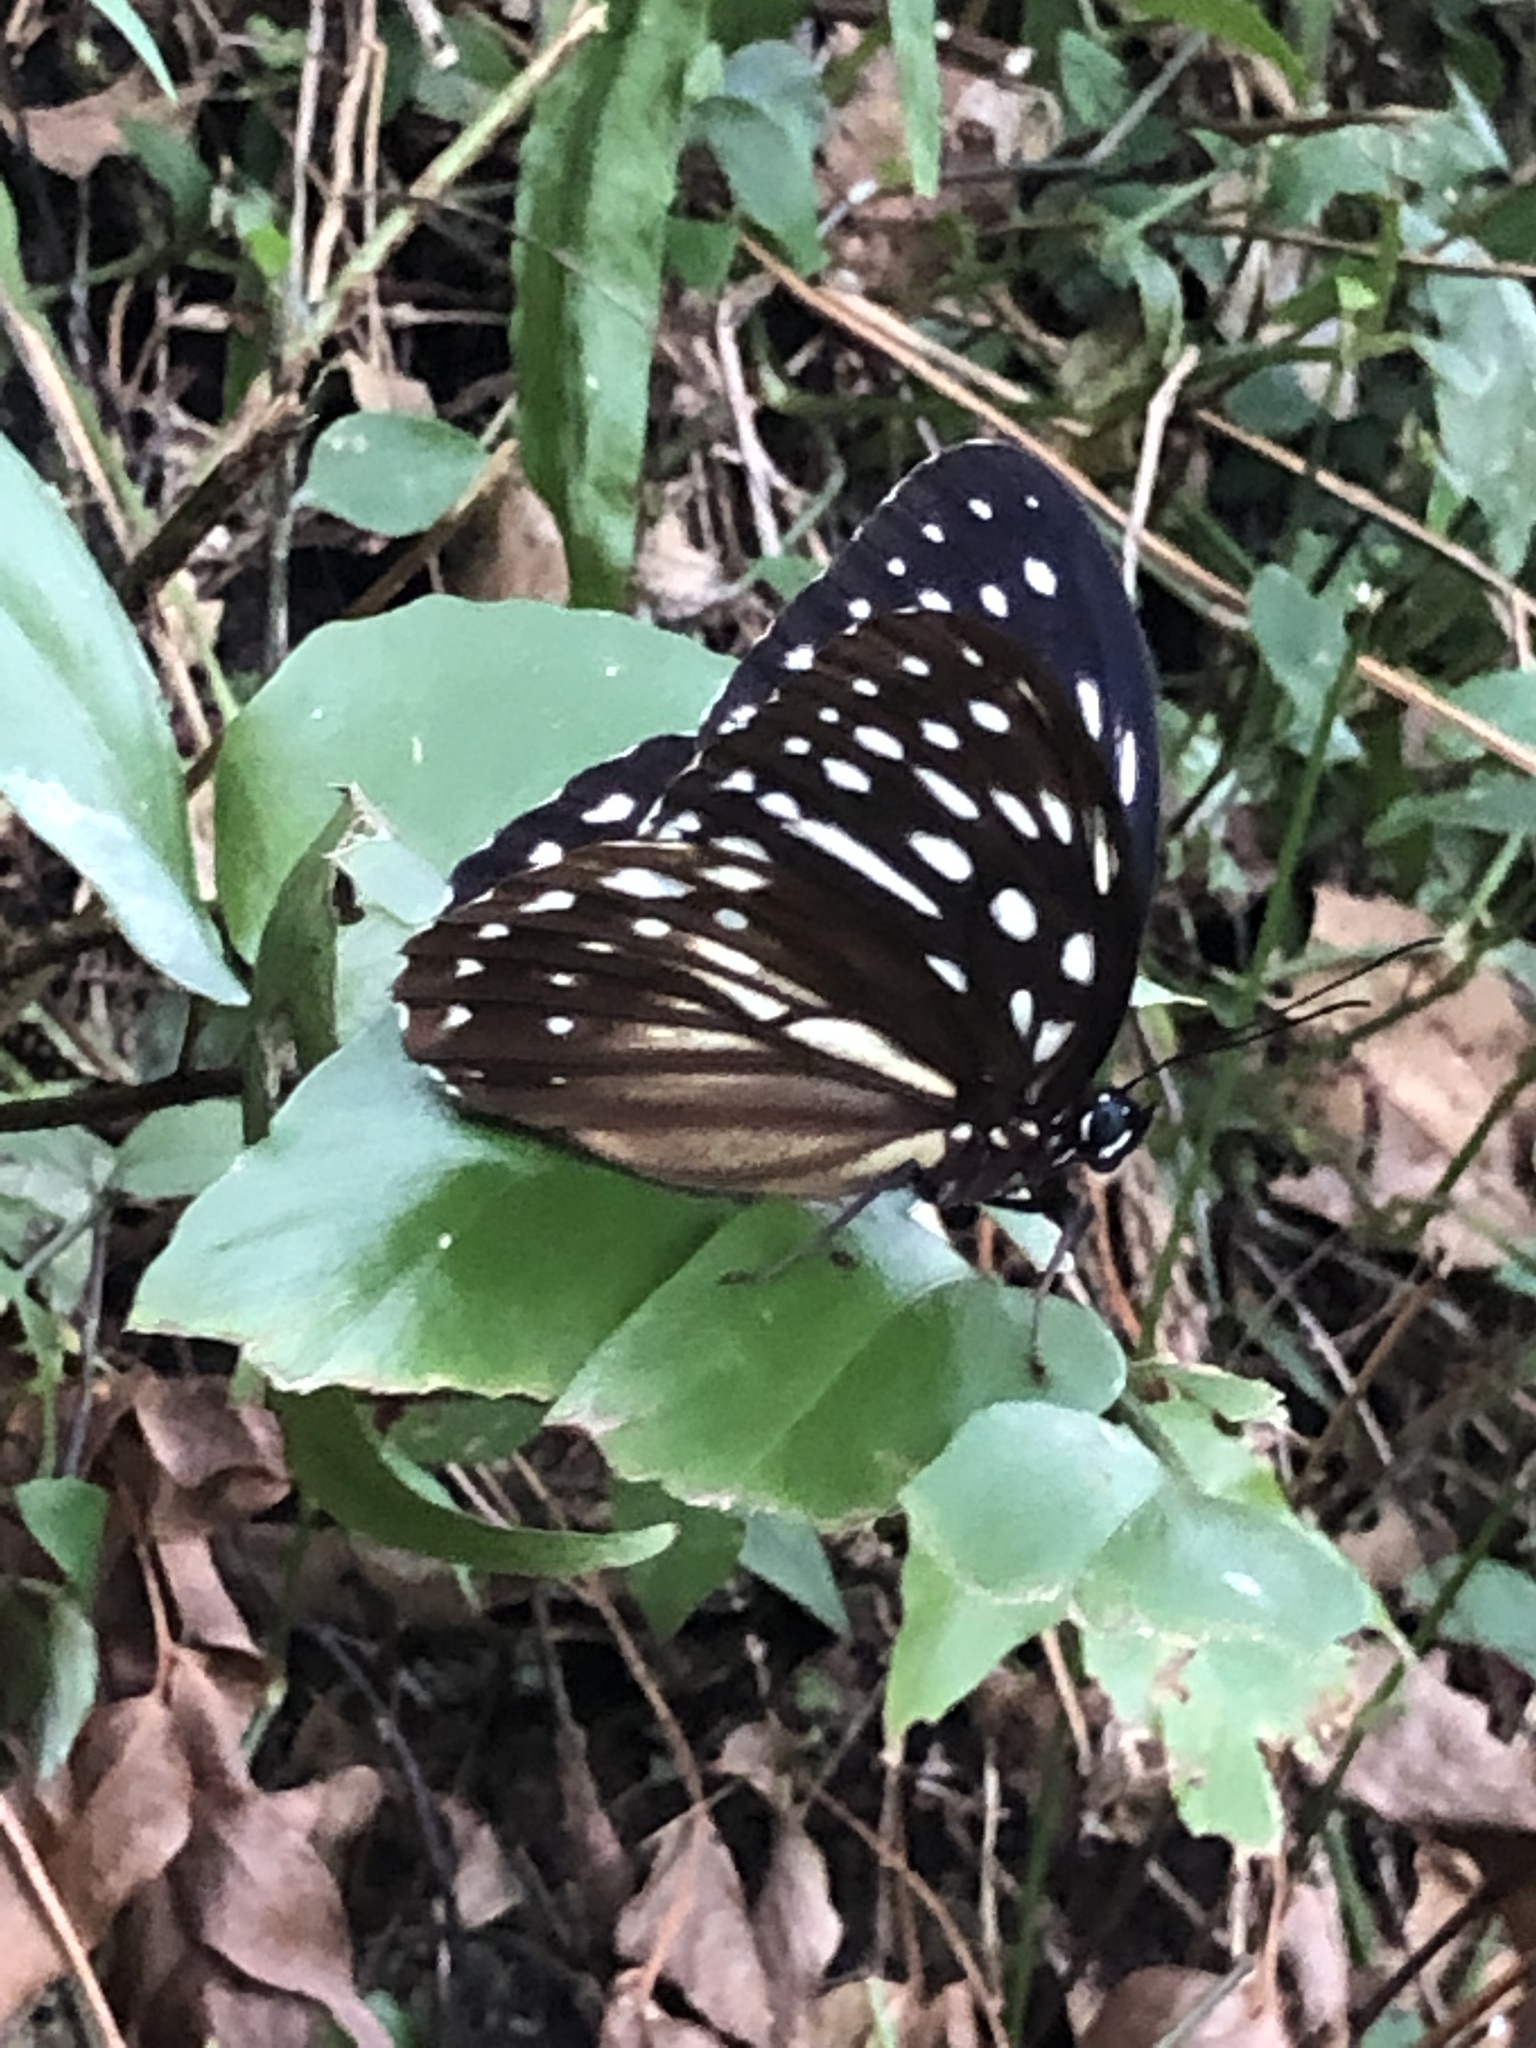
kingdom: Animalia
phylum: Arthropoda
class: Insecta
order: Lepidoptera
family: Nymphalidae
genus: Penthema
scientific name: Penthema formosanum
